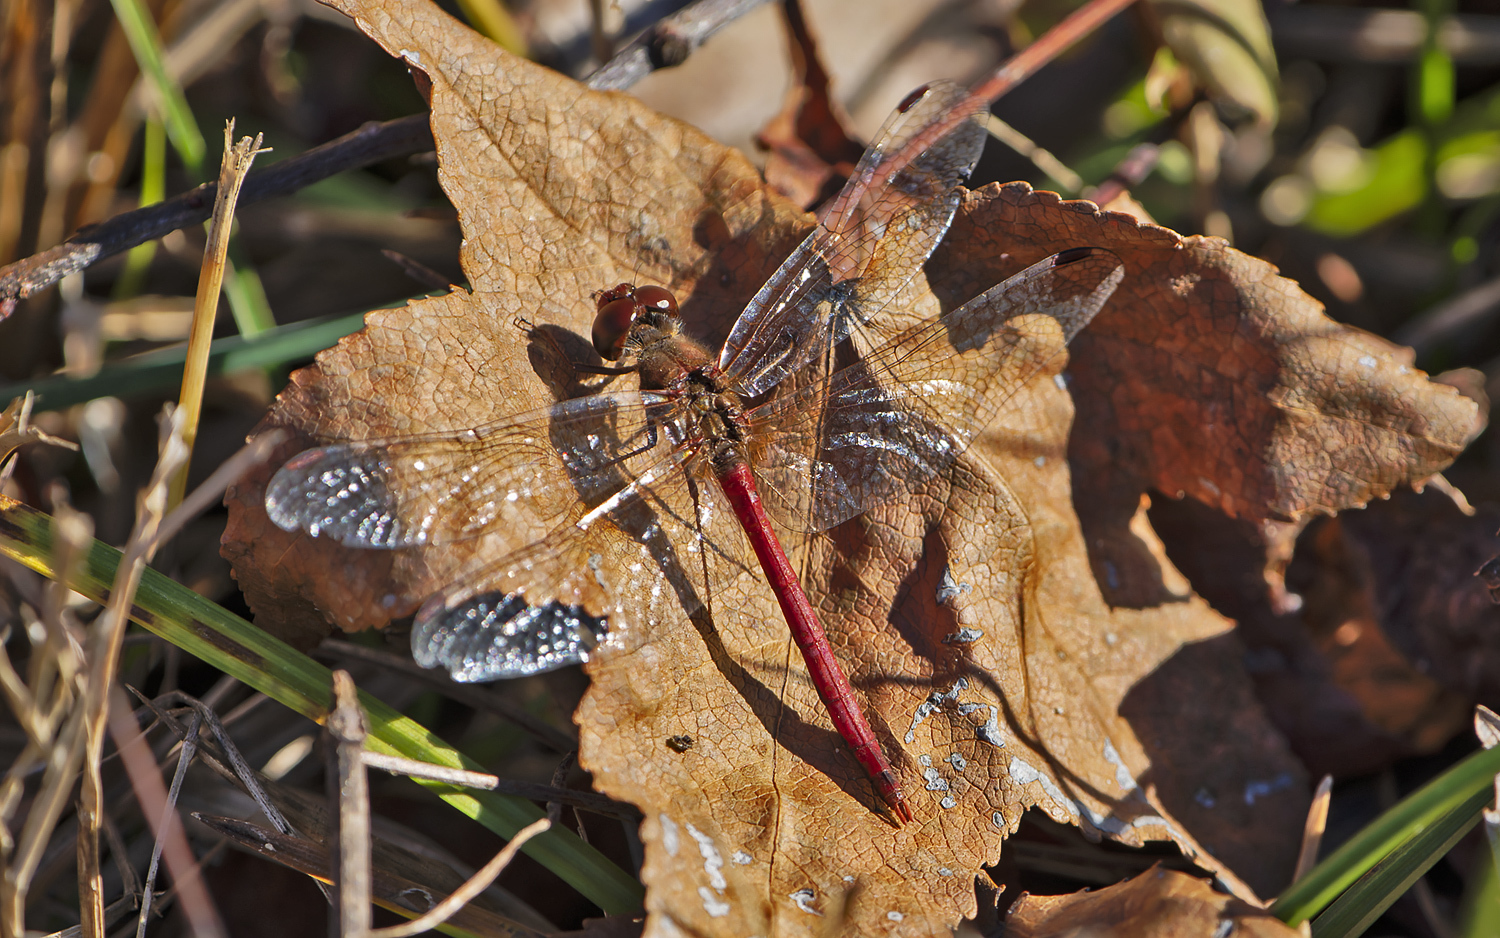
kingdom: Animalia
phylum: Arthropoda
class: Insecta
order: Odonata
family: Libellulidae
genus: Sympetrum
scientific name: Sympetrum vicinum
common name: Autumn meadowhawk
